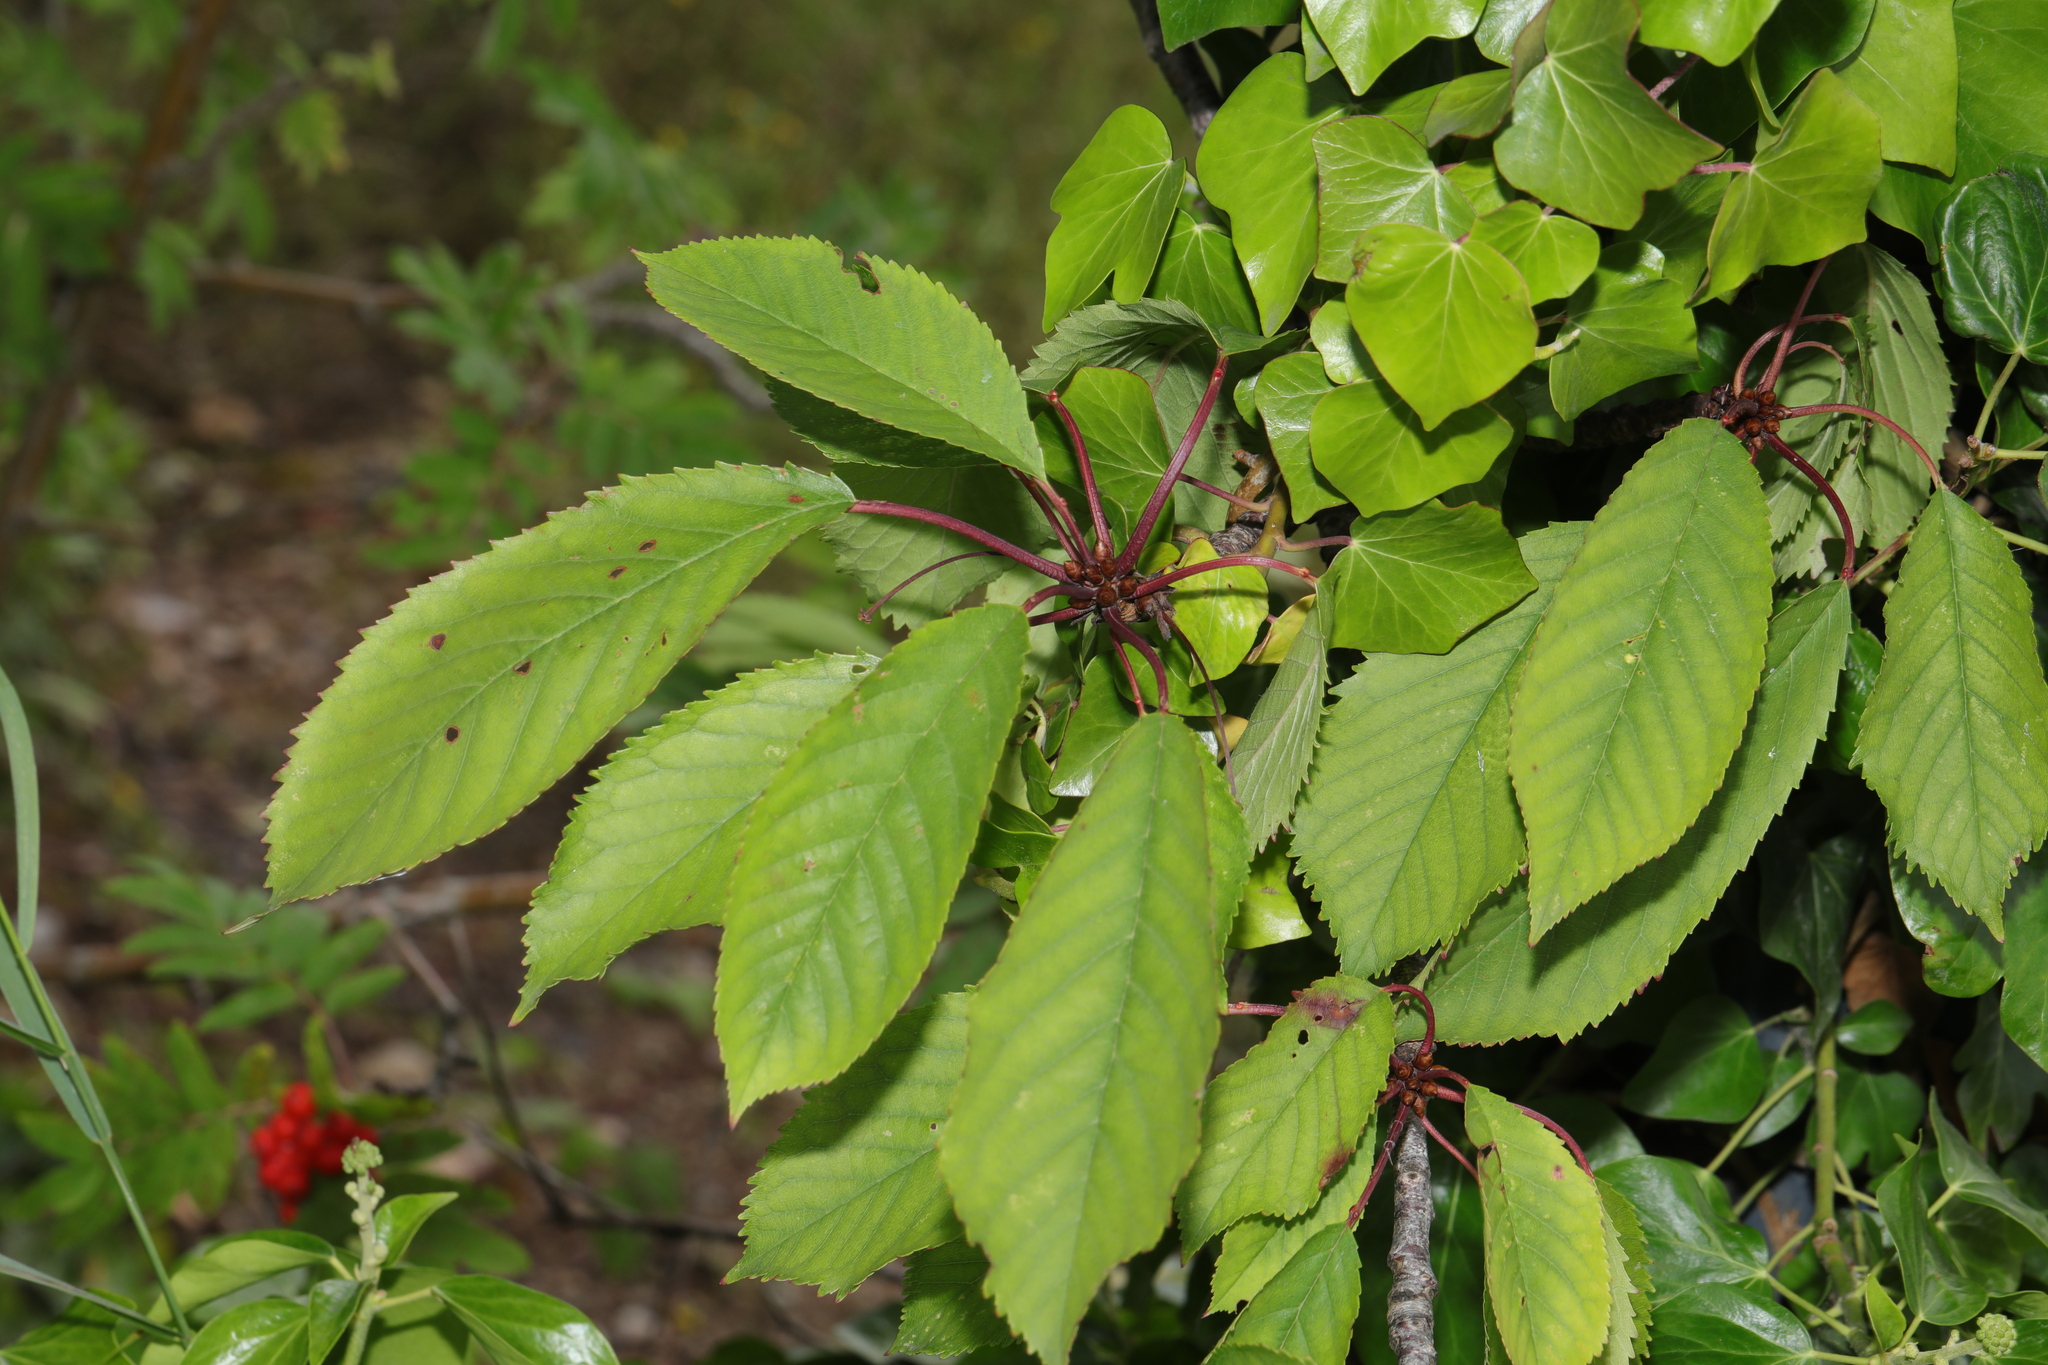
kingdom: Plantae
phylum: Tracheophyta
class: Magnoliopsida
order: Rosales
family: Rosaceae
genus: Prunus
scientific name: Prunus avium
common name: Sweet cherry
